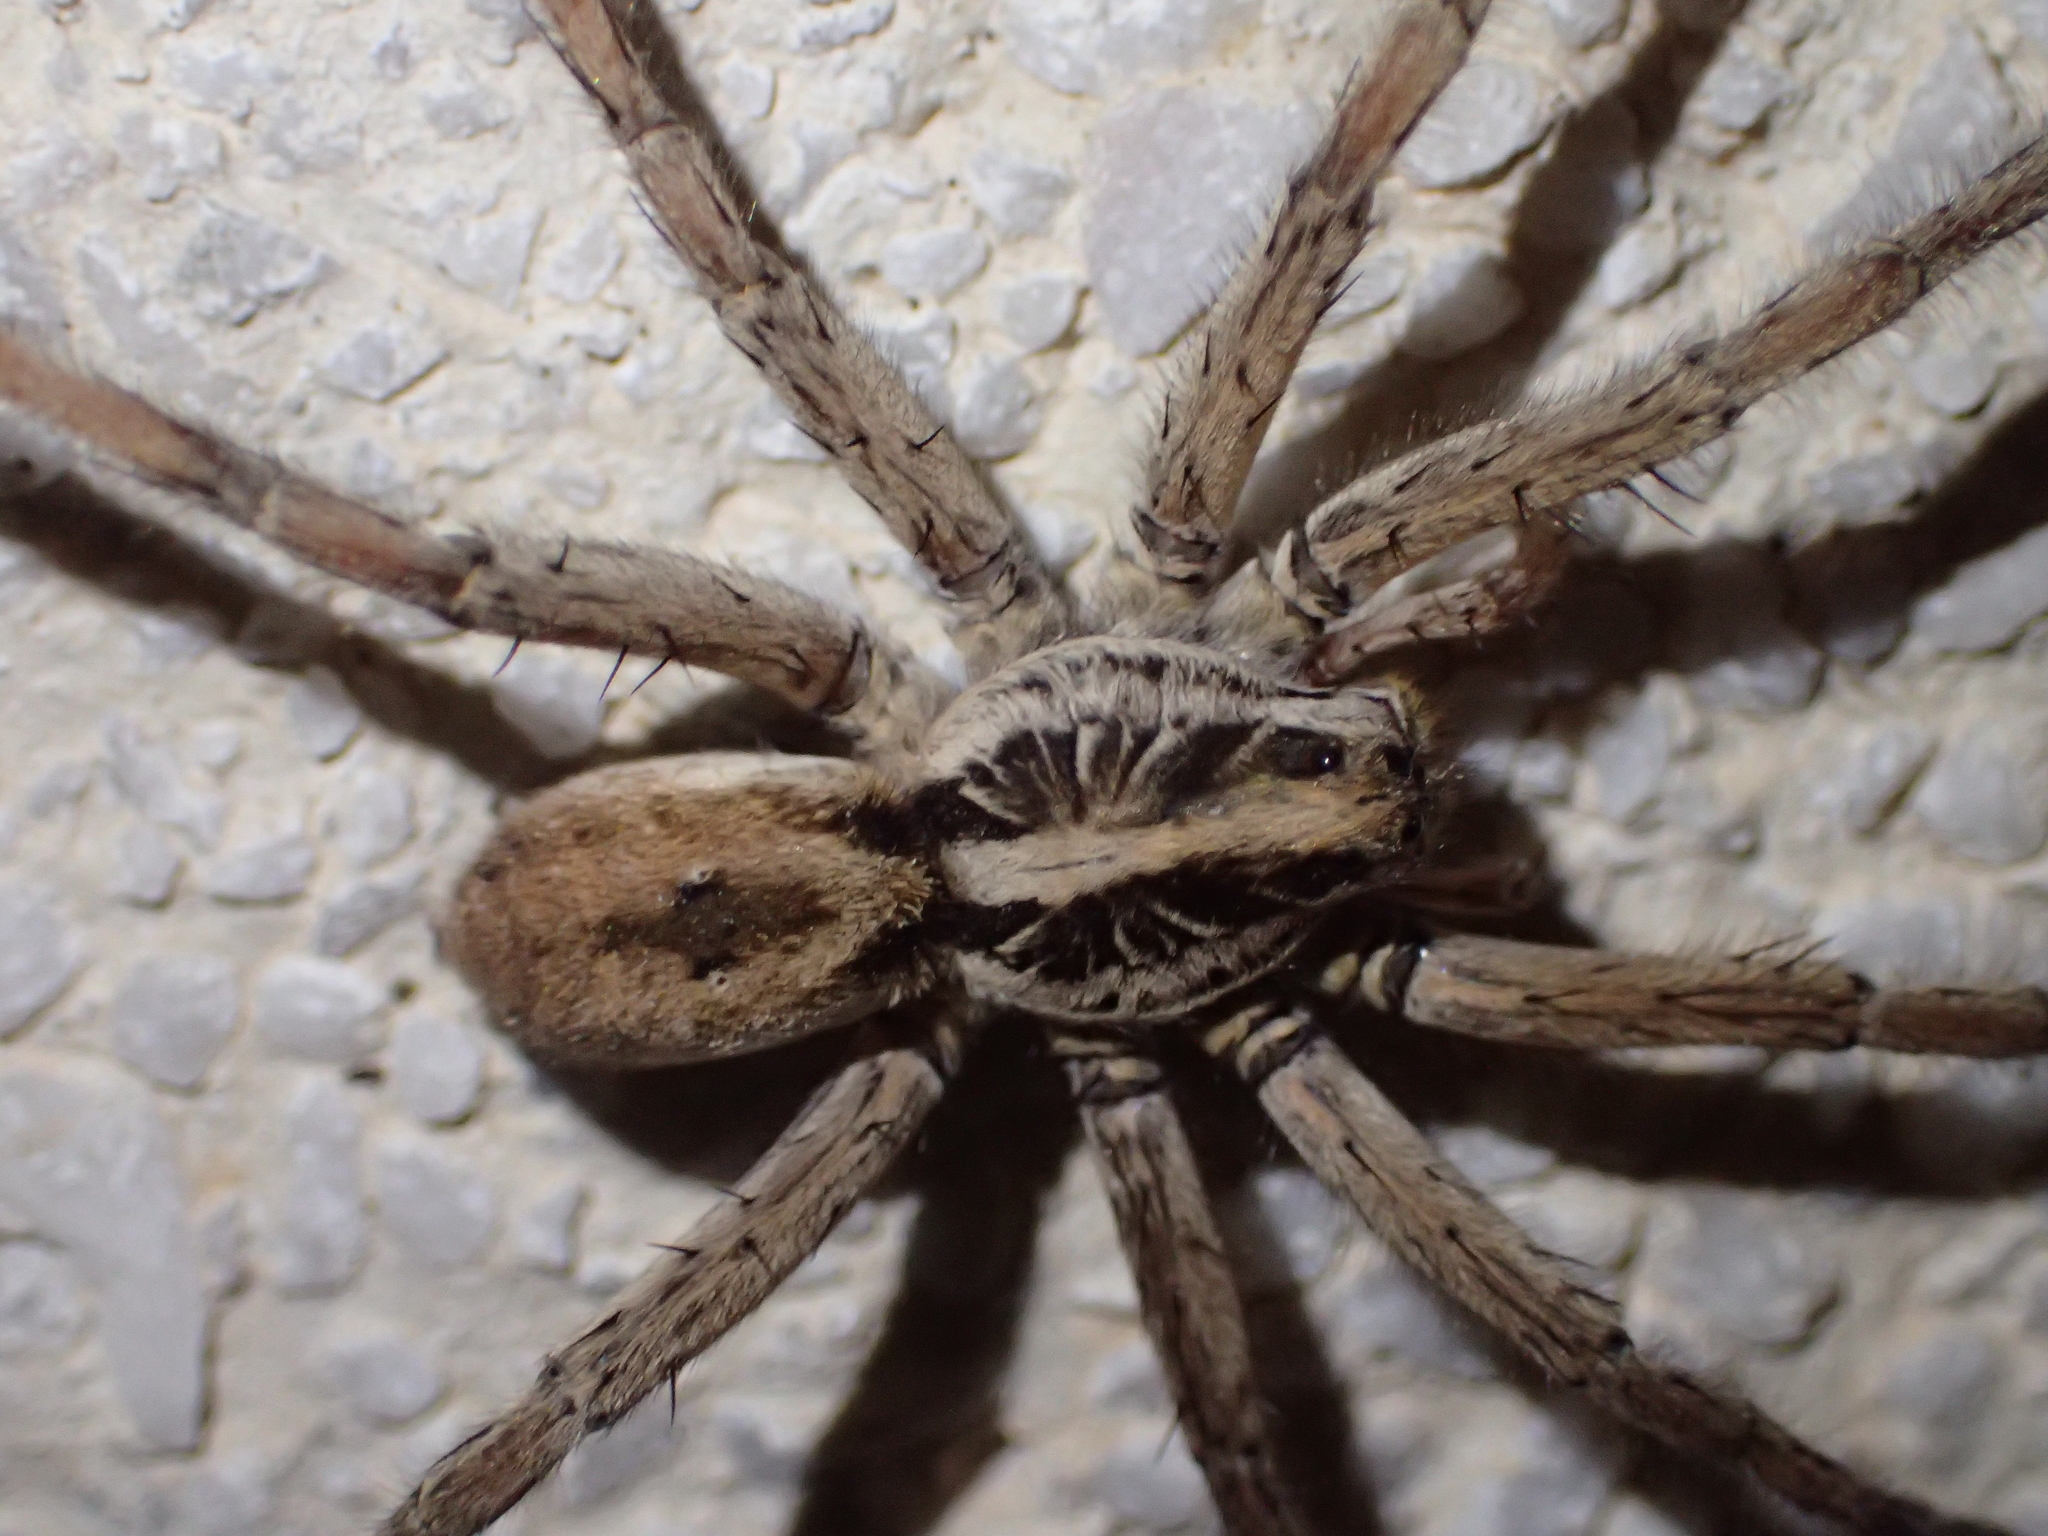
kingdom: Animalia
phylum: Arthropoda
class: Arachnida
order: Araneae
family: Lycosidae
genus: Hogna
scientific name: Hogna radiata
